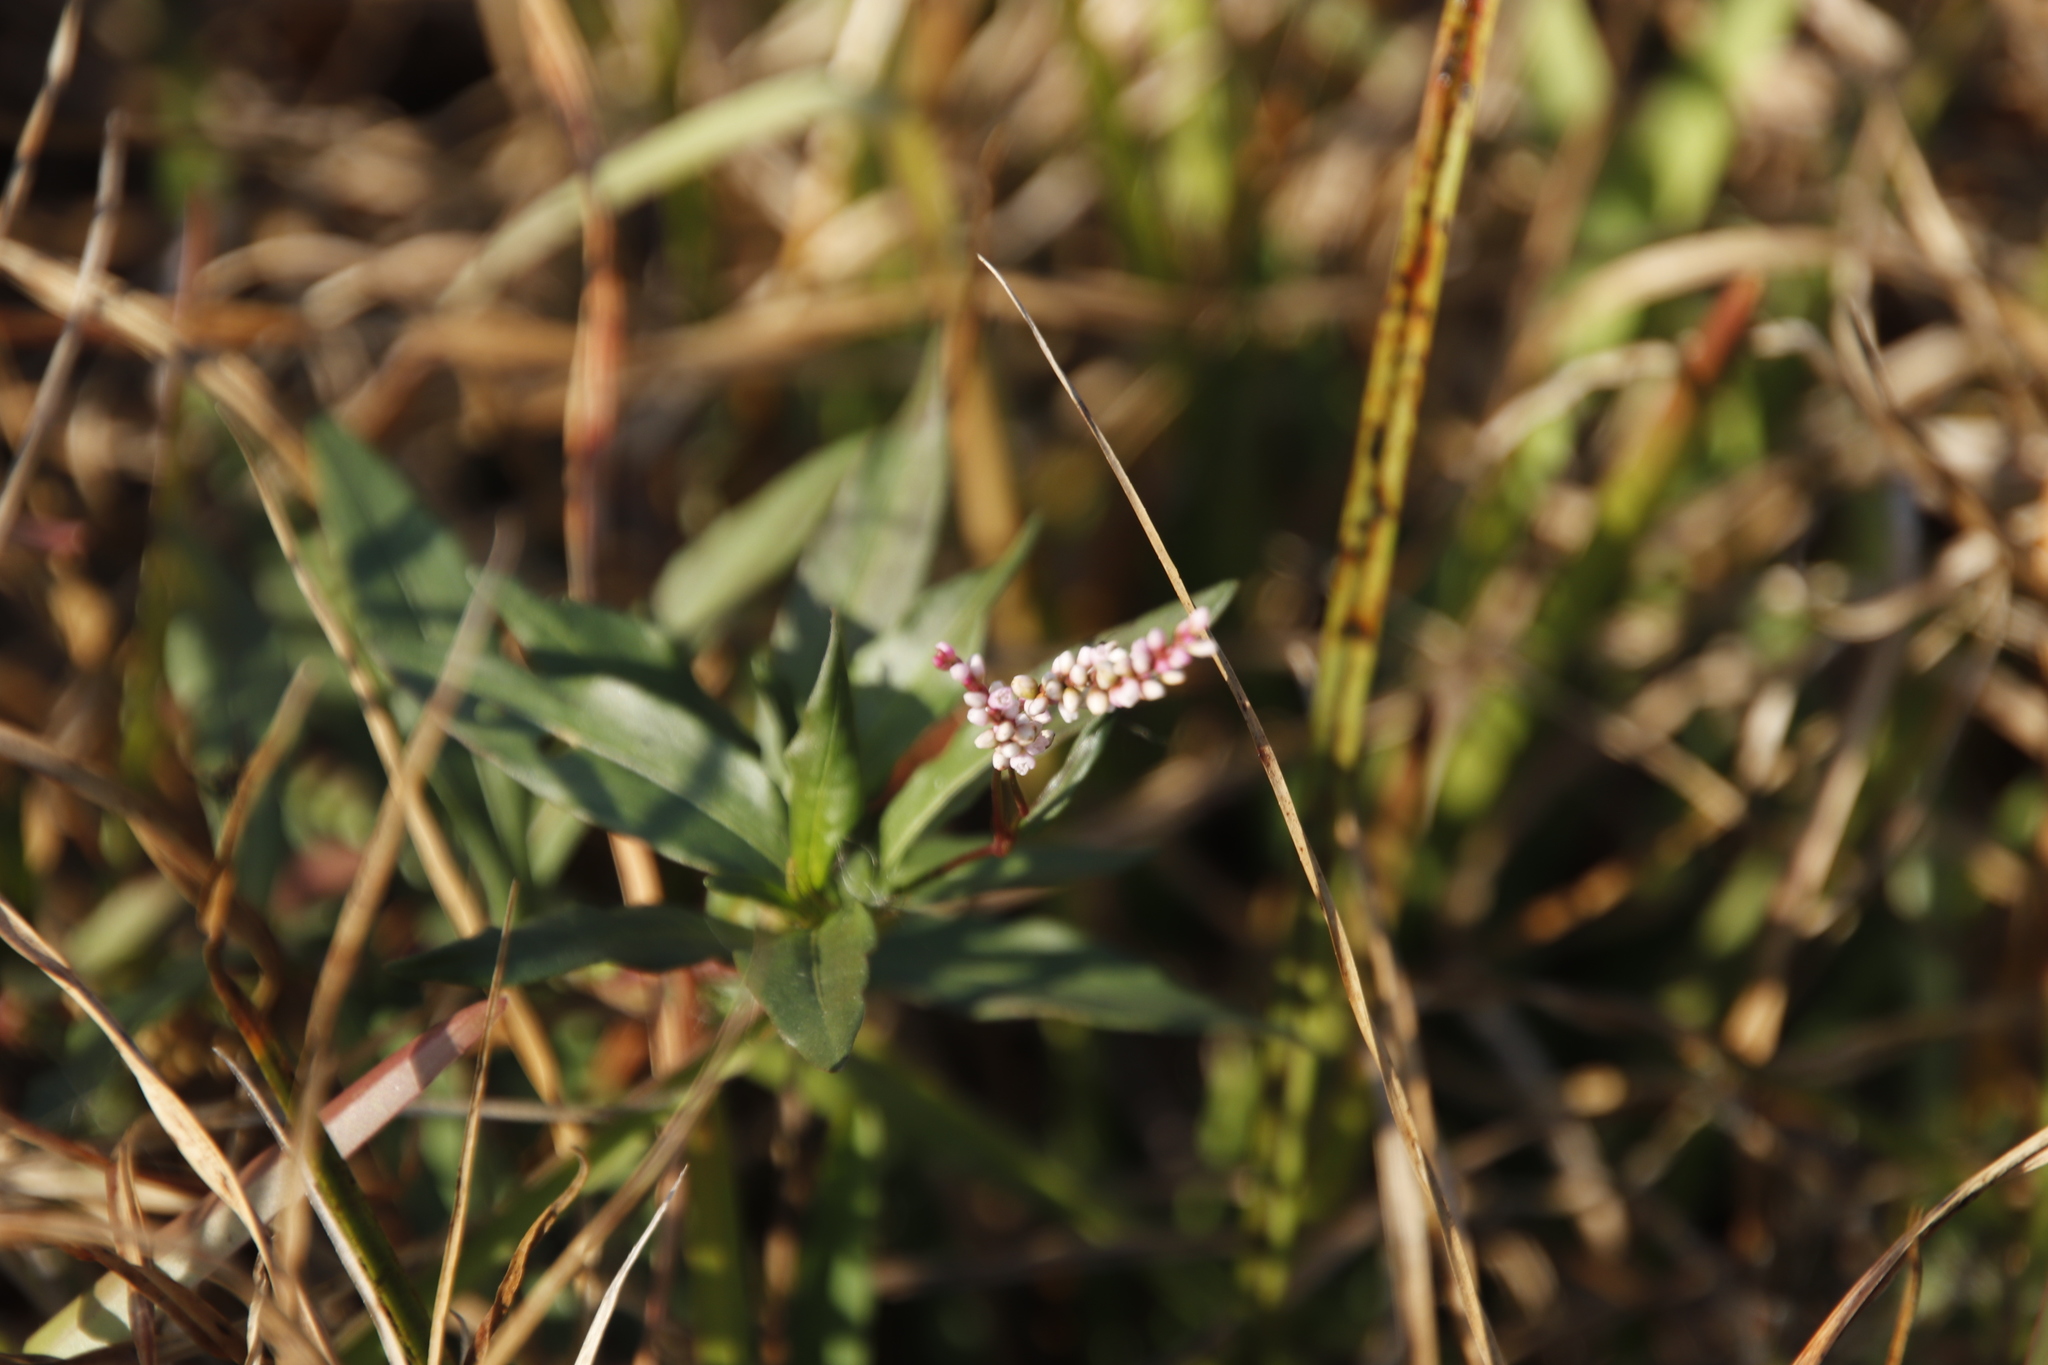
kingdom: Plantae
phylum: Tracheophyta
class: Magnoliopsida
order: Caryophyllales
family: Polygonaceae
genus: Persicaria
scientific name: Persicaria madagascariensis
